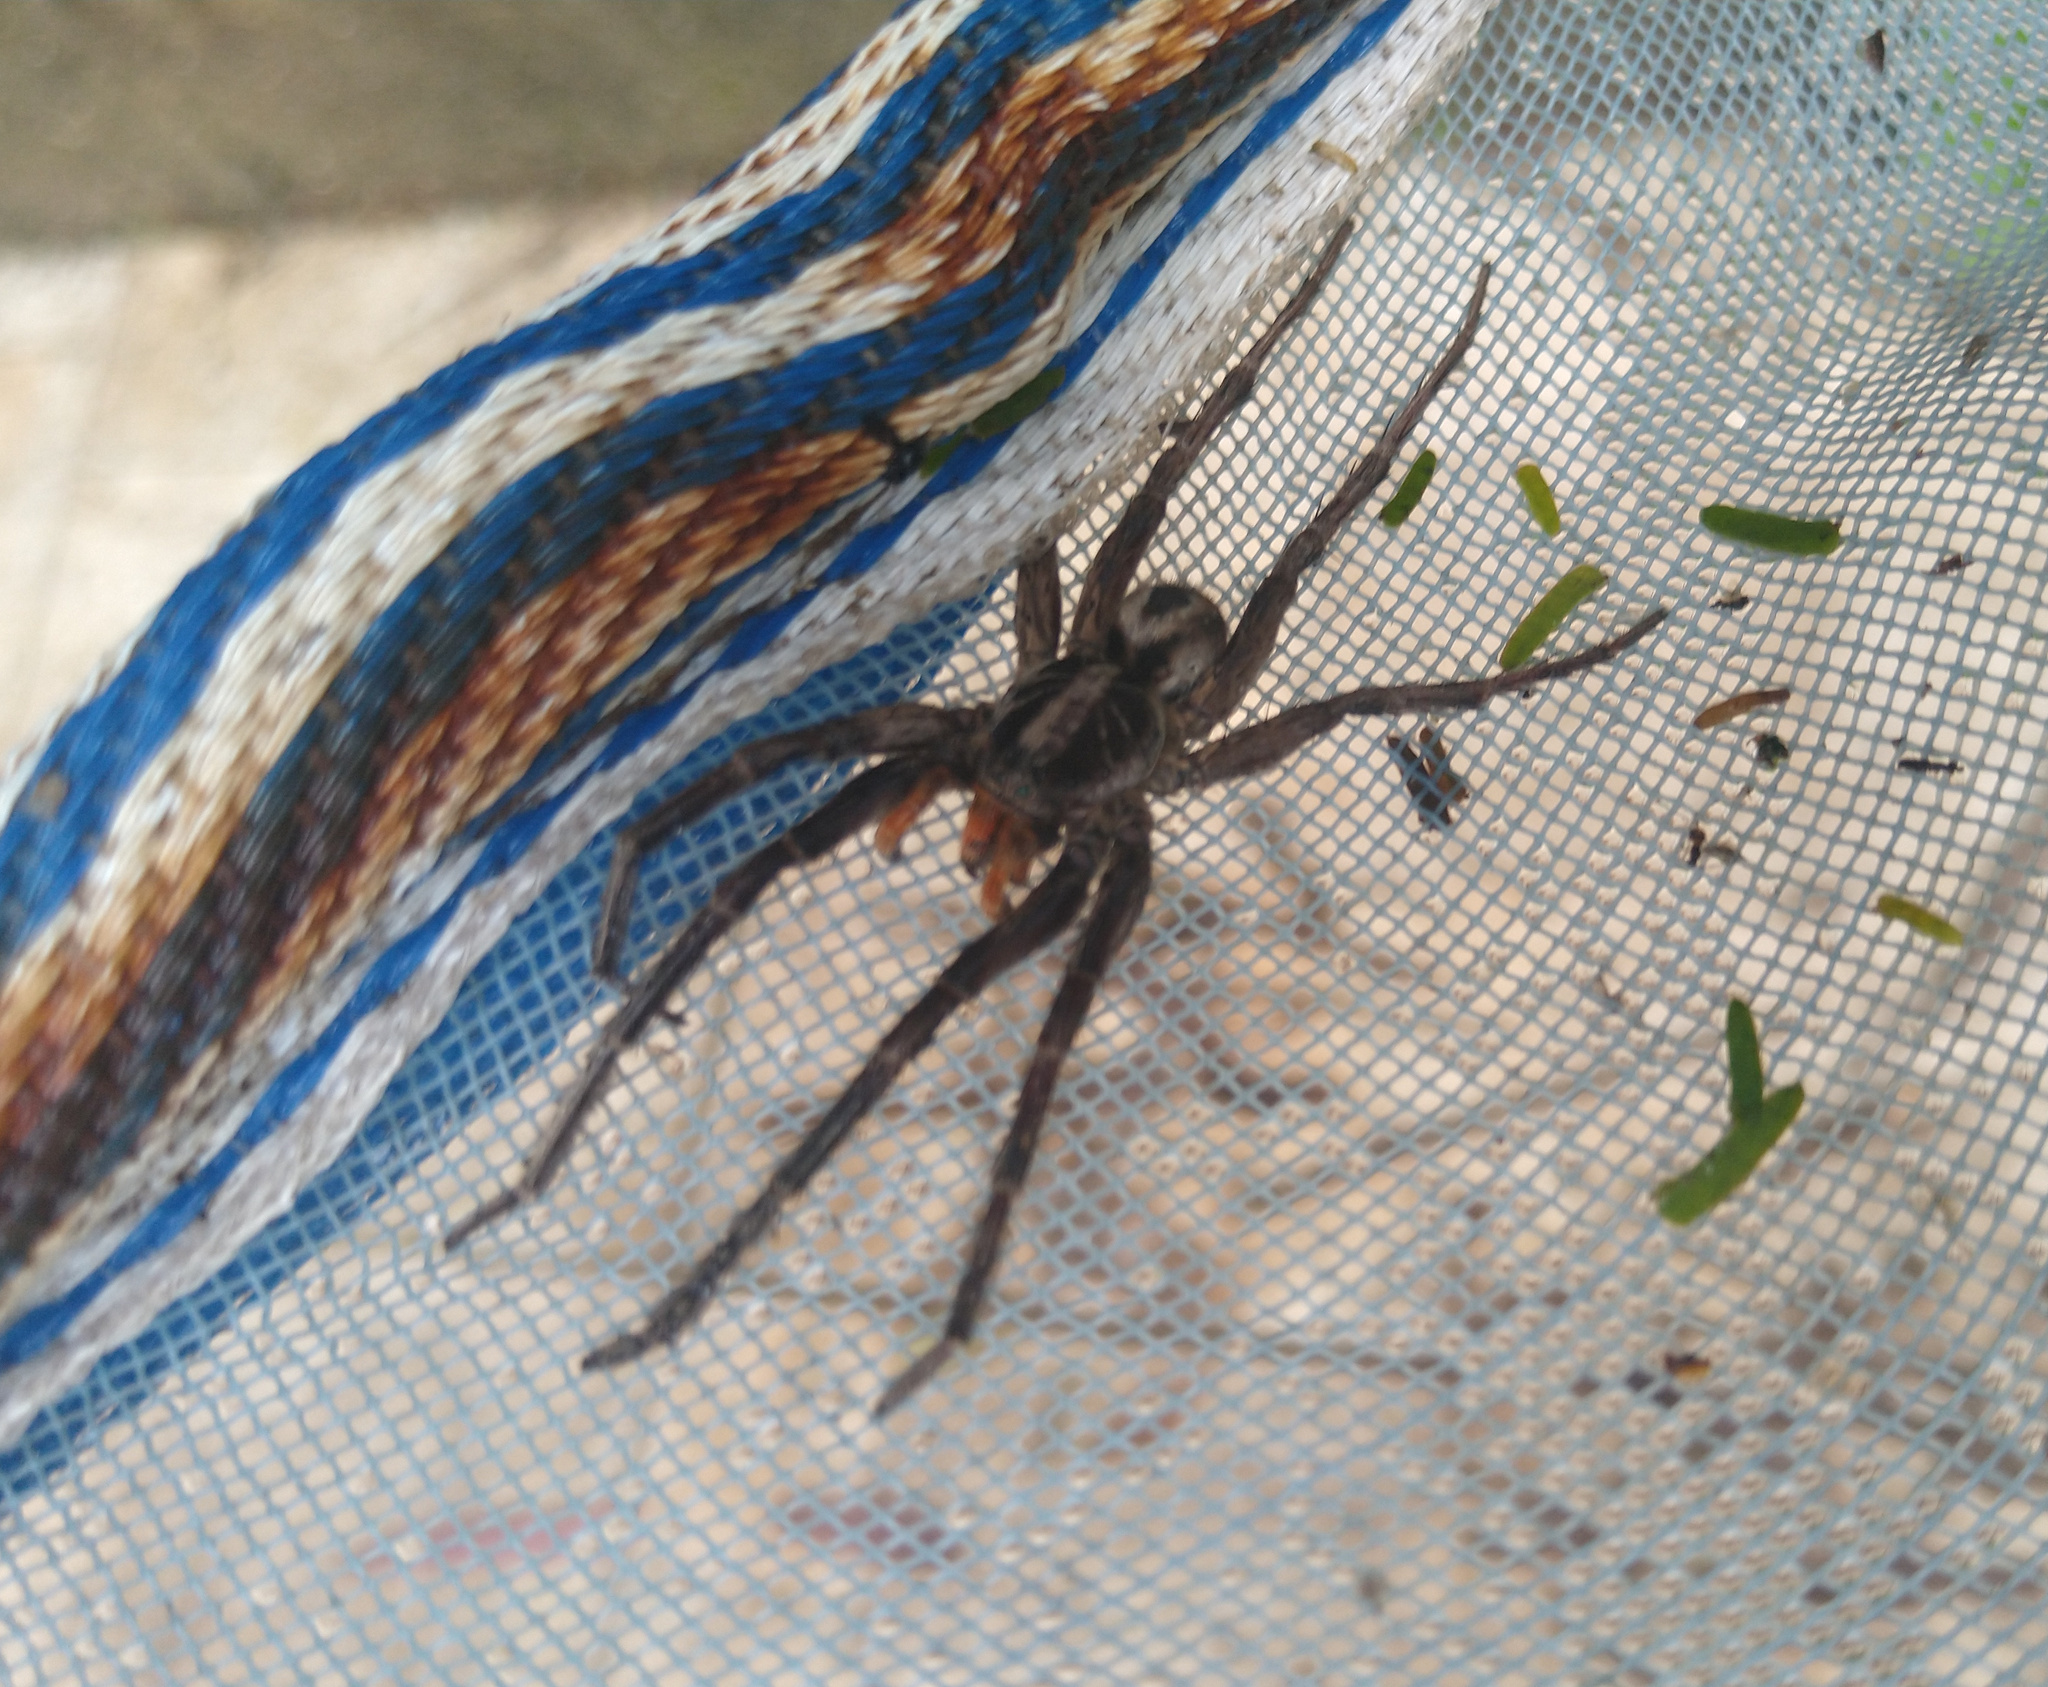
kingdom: Animalia
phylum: Arthropoda
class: Arachnida
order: Araneae
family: Lycosidae
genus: Lycosa
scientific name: Lycosa erythrognatha
